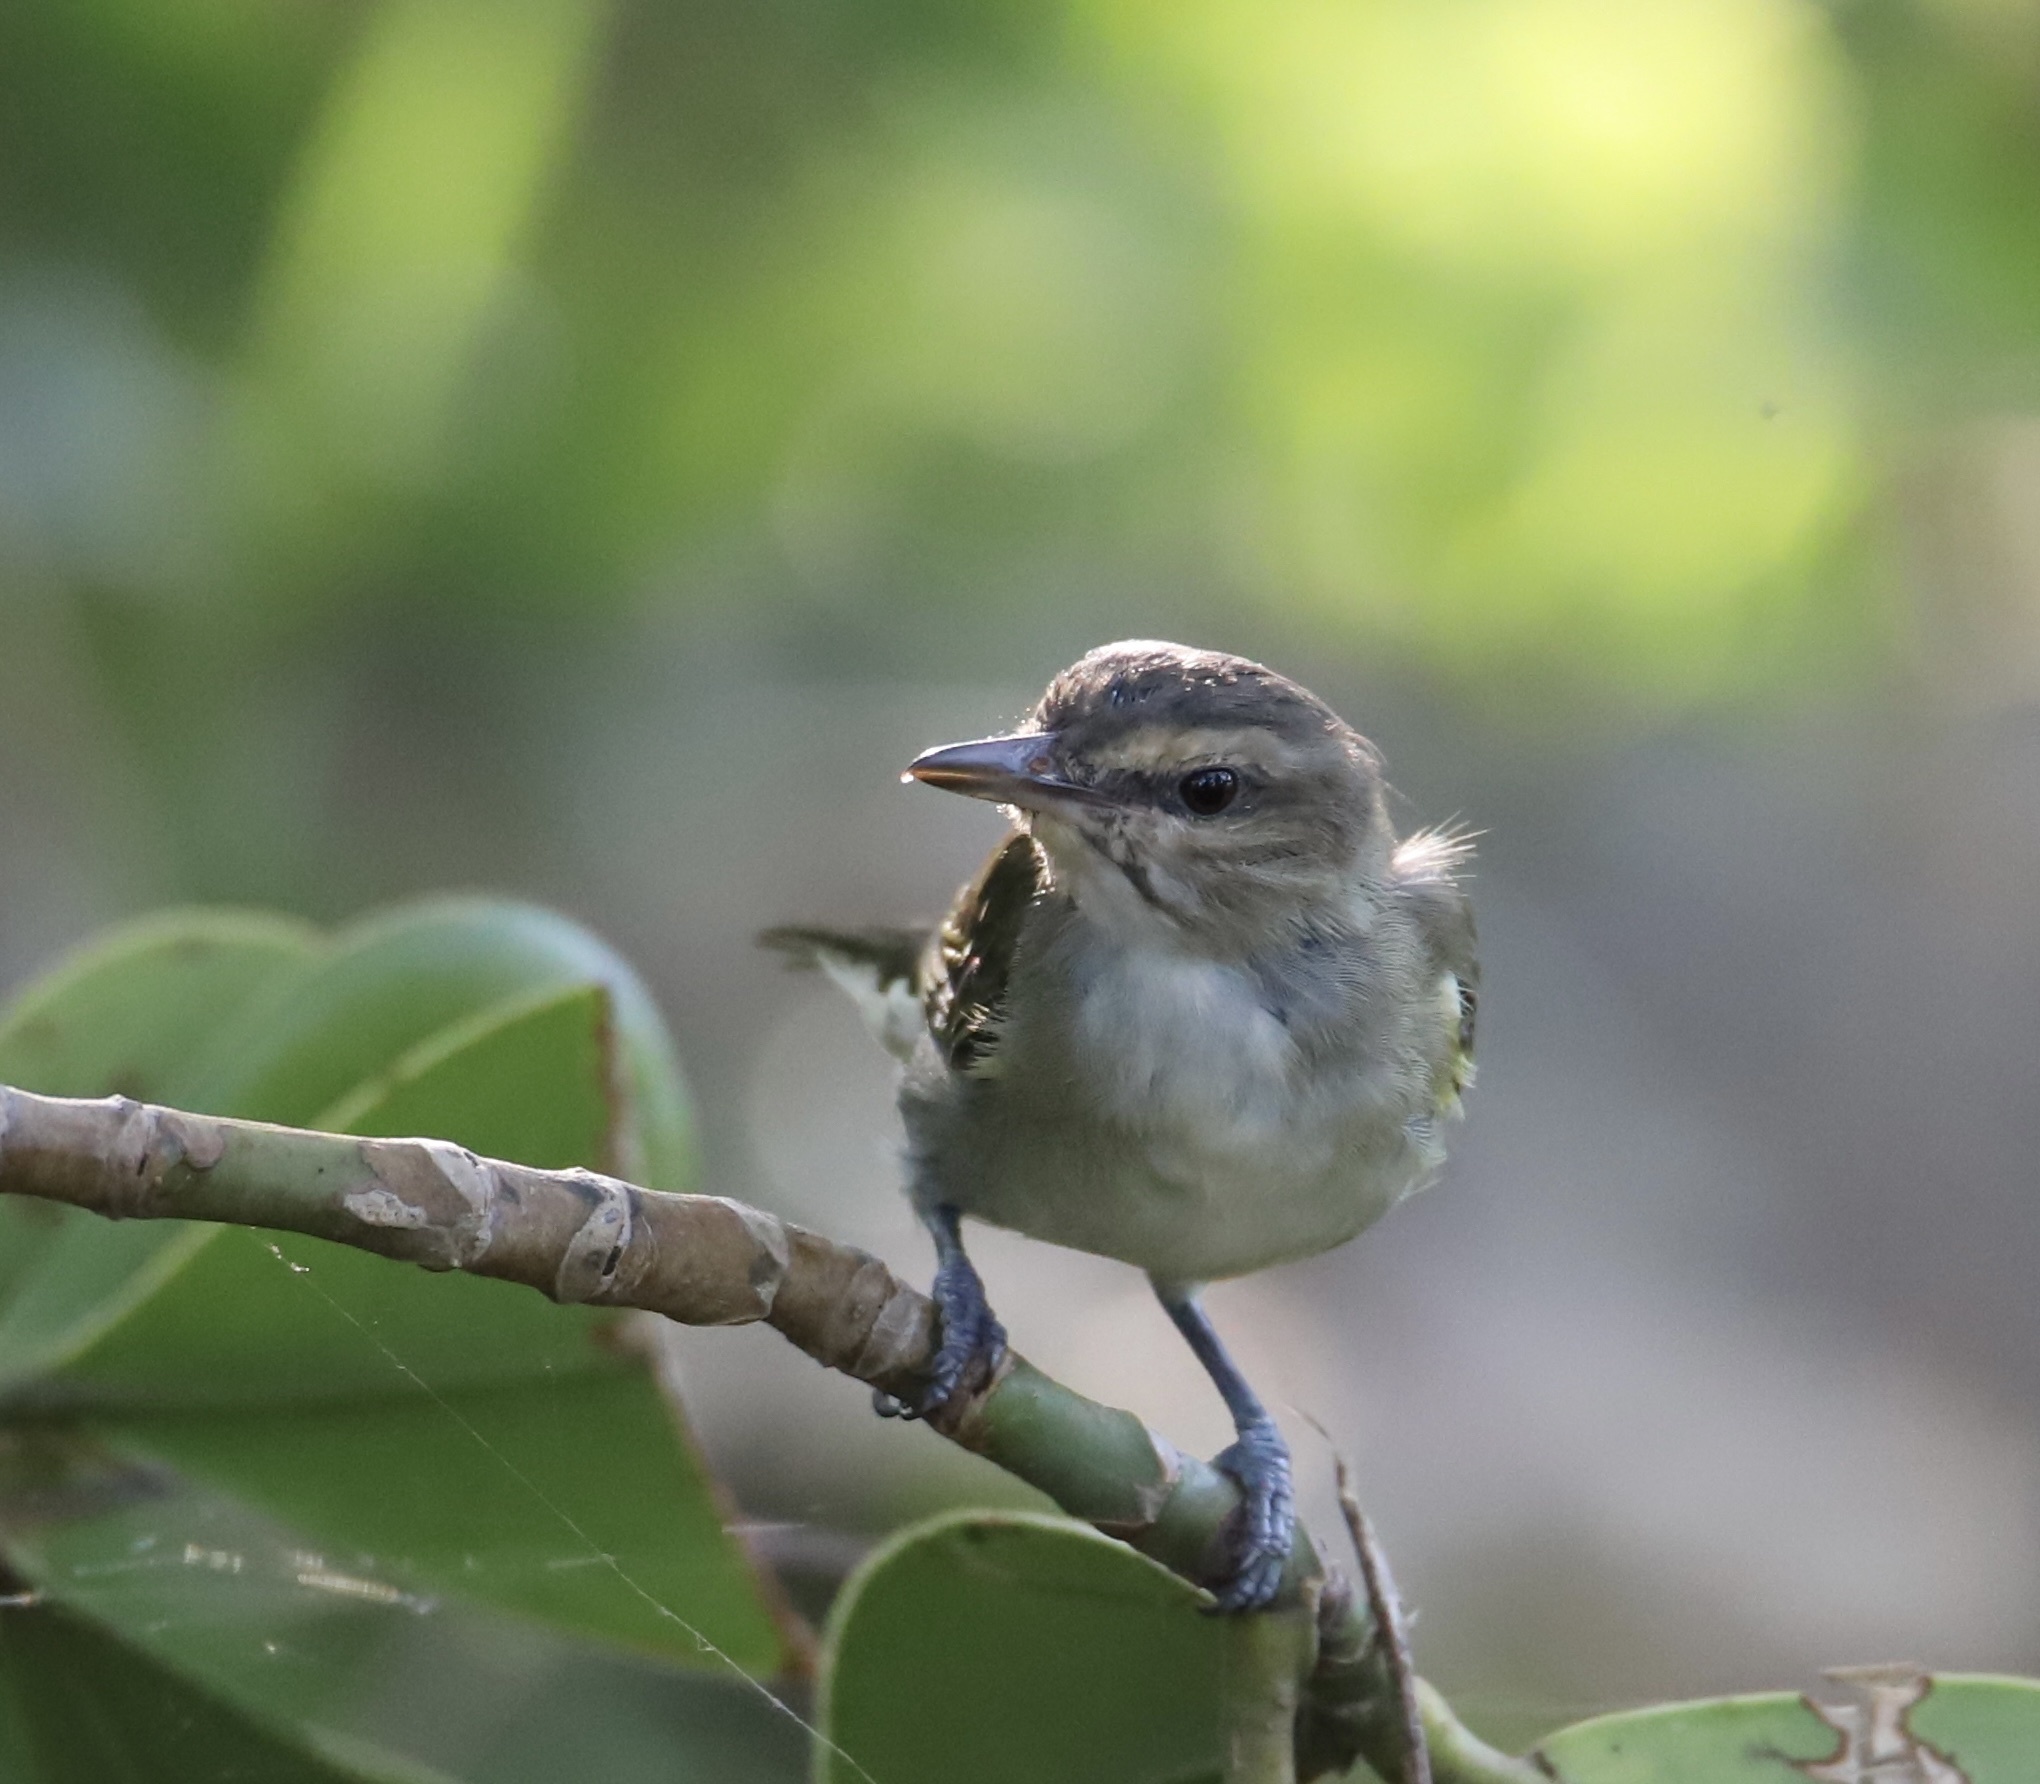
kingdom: Animalia
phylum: Chordata
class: Aves
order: Passeriformes
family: Vireonidae
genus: Vireo
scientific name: Vireo altiloquus
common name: Black-whiskered vireo
